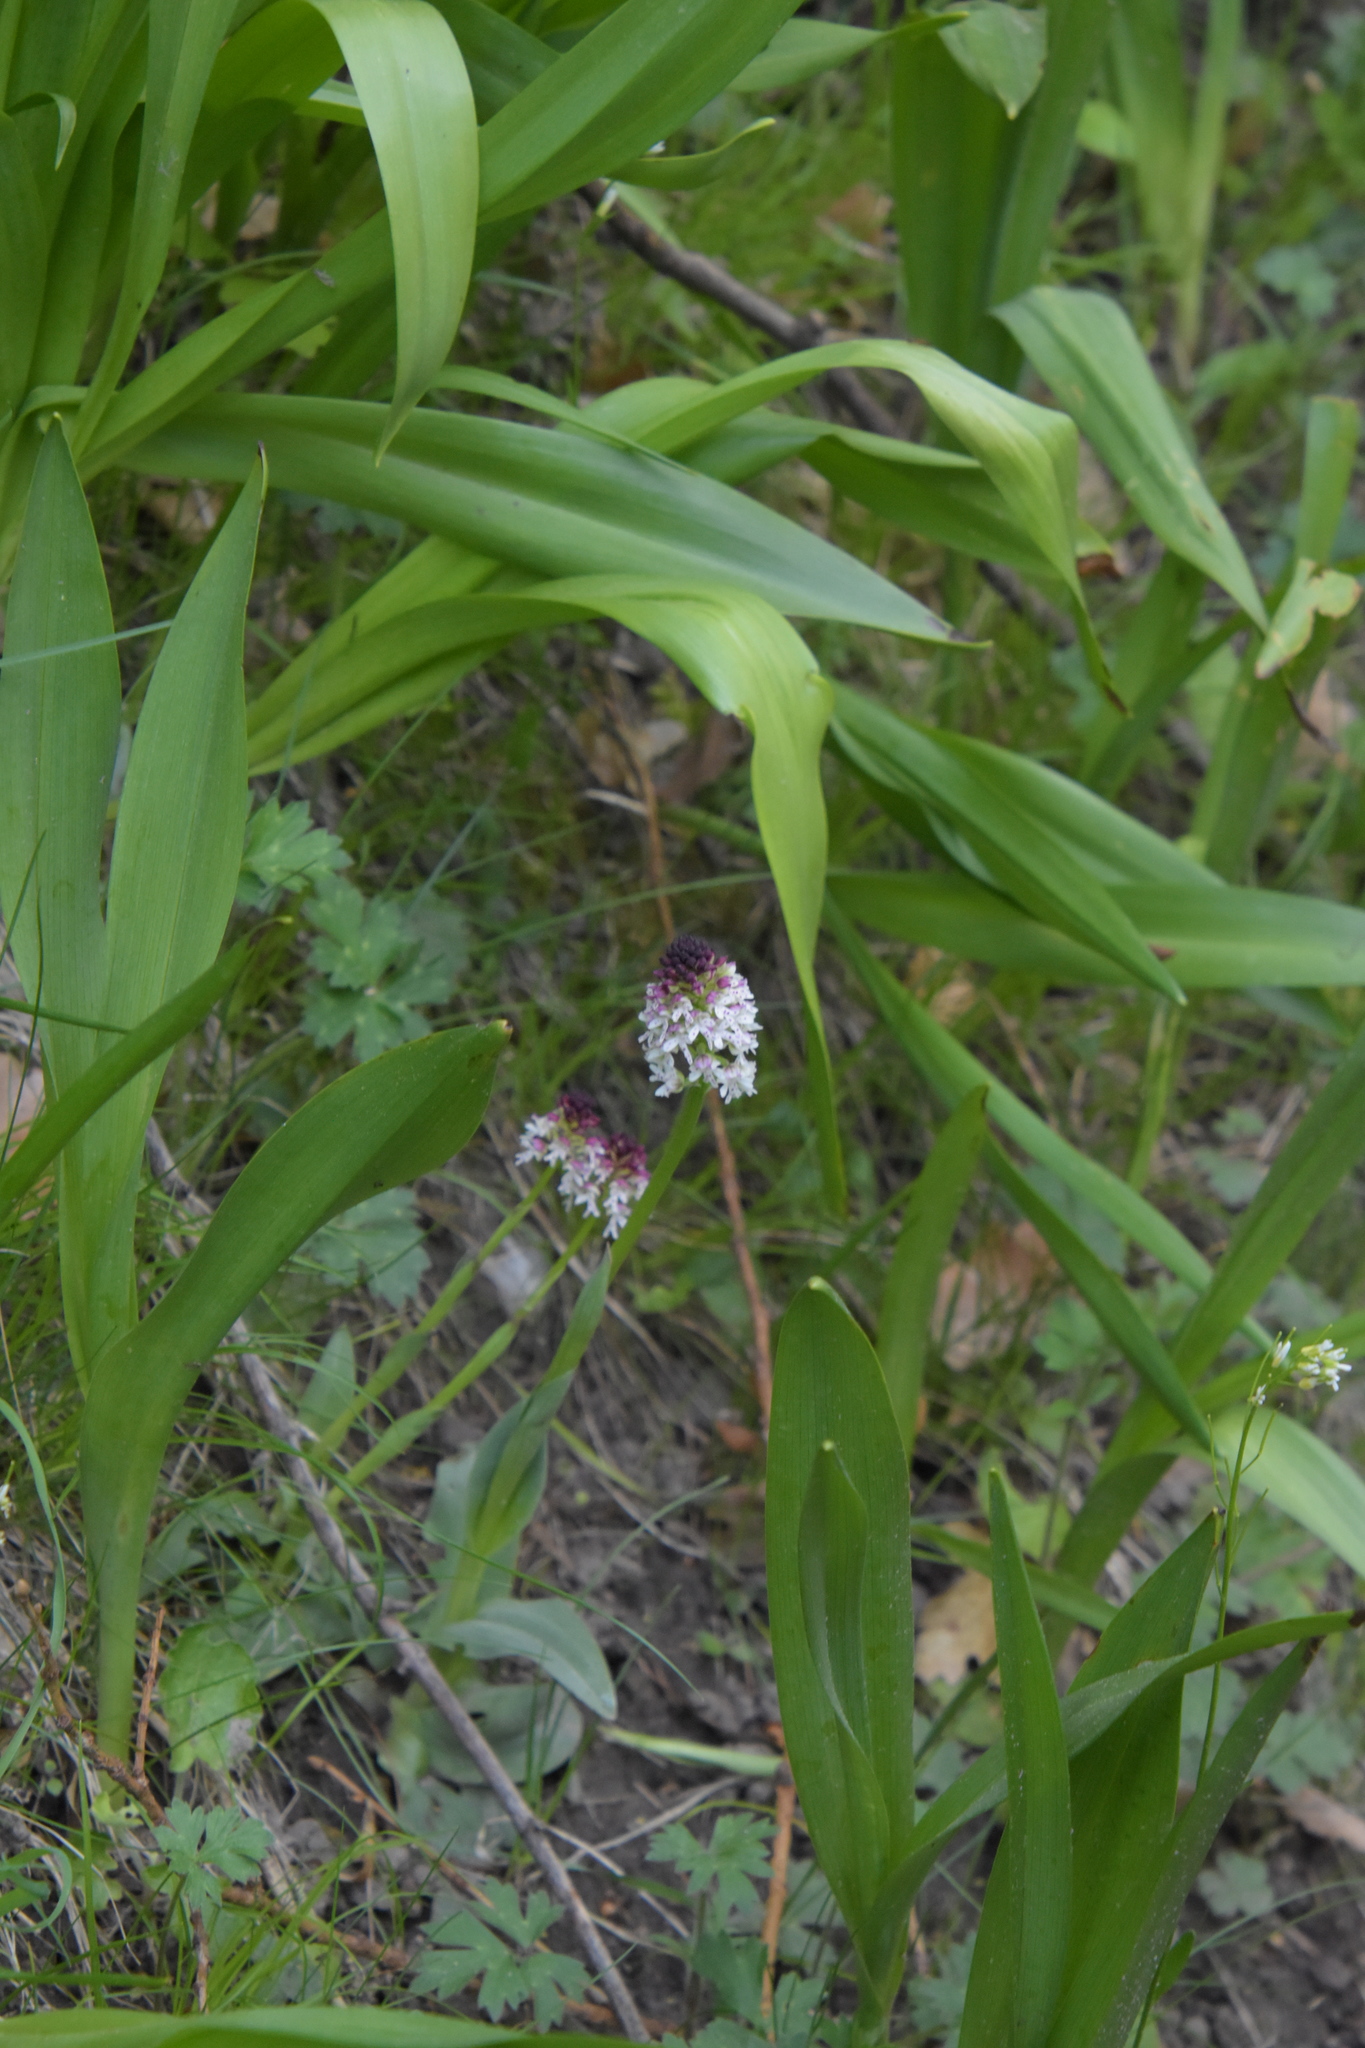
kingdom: Plantae
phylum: Tracheophyta
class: Liliopsida
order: Asparagales
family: Orchidaceae
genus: Neotinea
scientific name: Neotinea ustulata
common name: Burnt orchid
